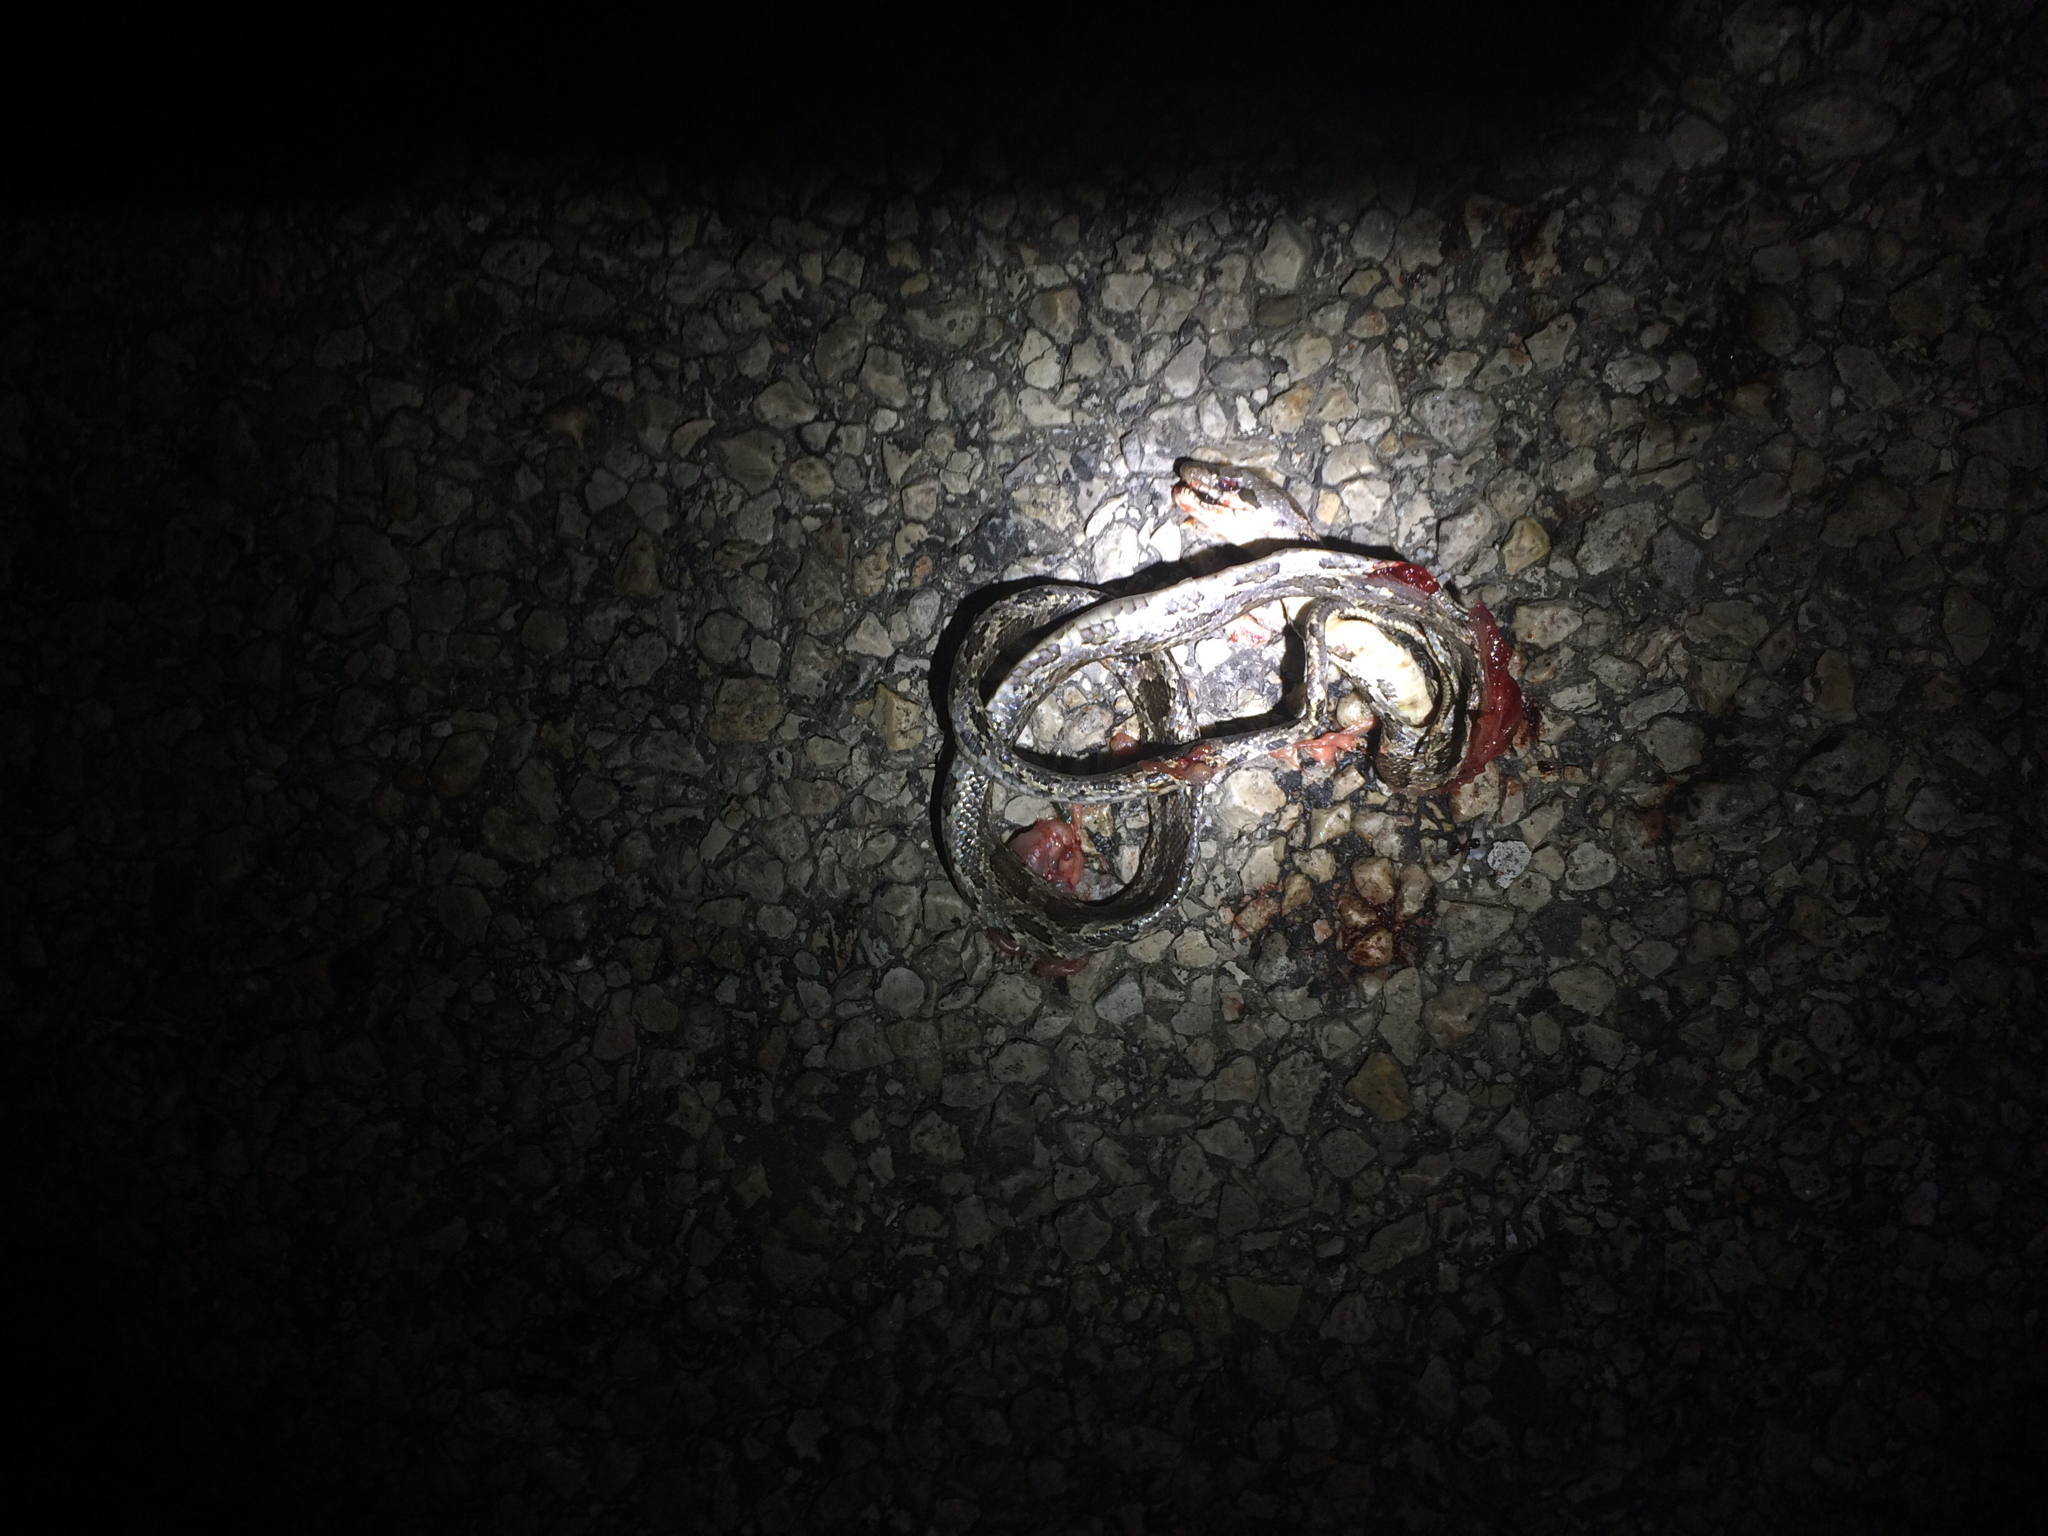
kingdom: Animalia
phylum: Chordata
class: Squamata
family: Colubridae
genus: Pantherophis
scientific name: Pantherophis obsoletus
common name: Black rat snake
